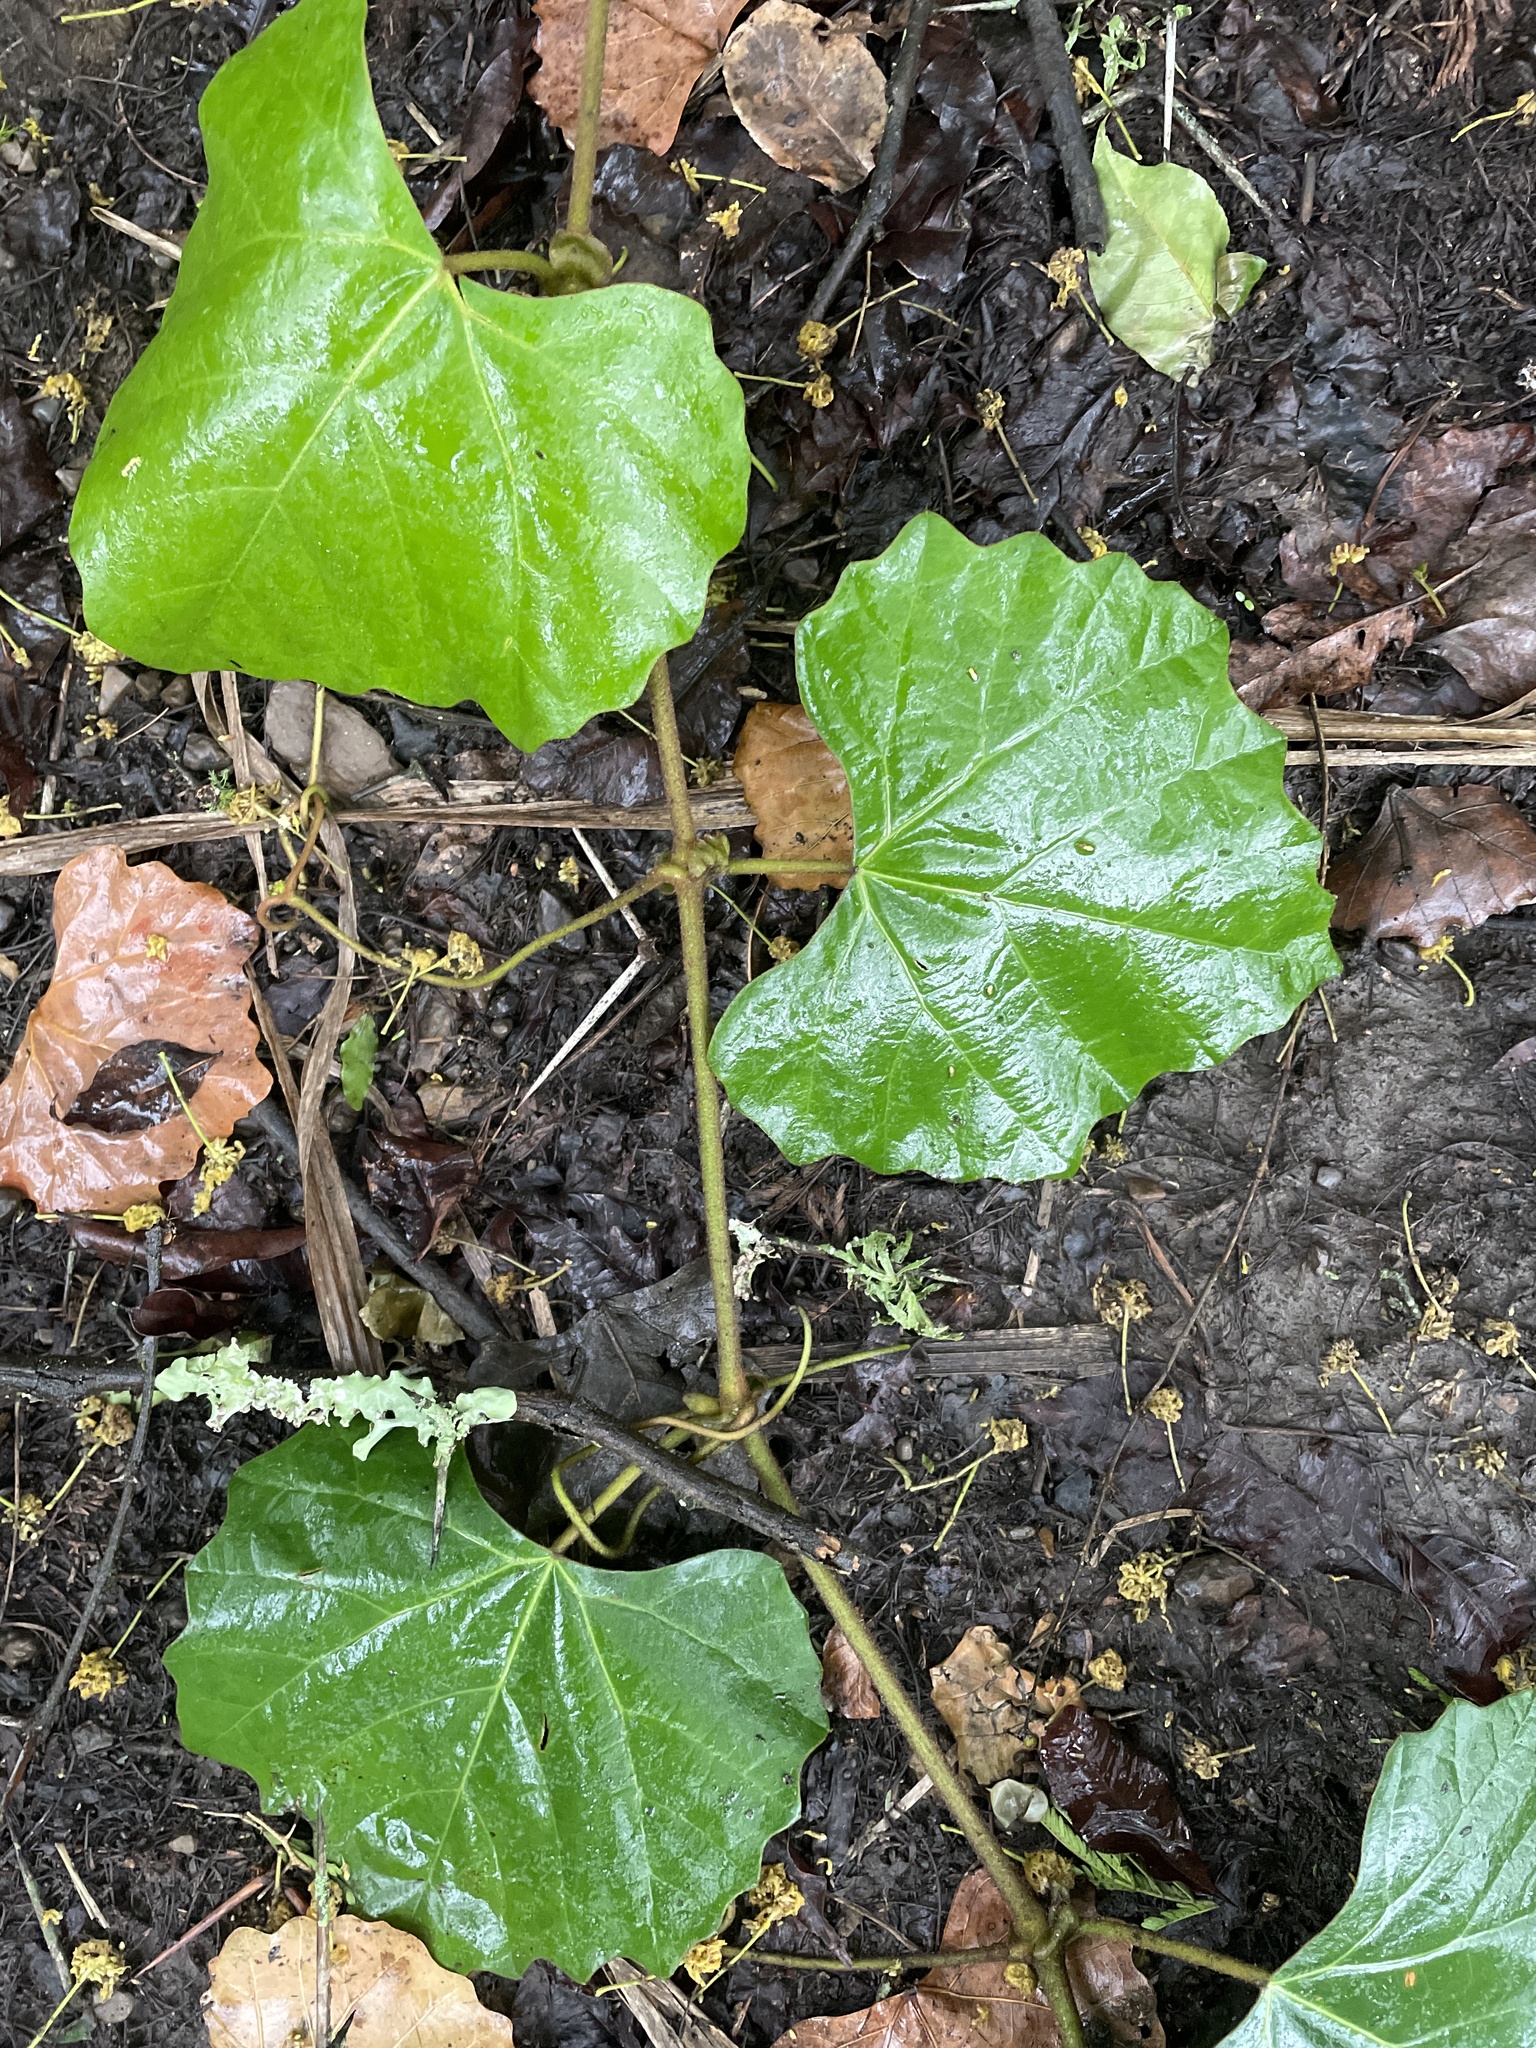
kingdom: Plantae
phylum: Tracheophyta
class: Magnoliopsida
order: Vitales
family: Vitaceae
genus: Rhoicissus
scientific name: Rhoicissus tomentosa
